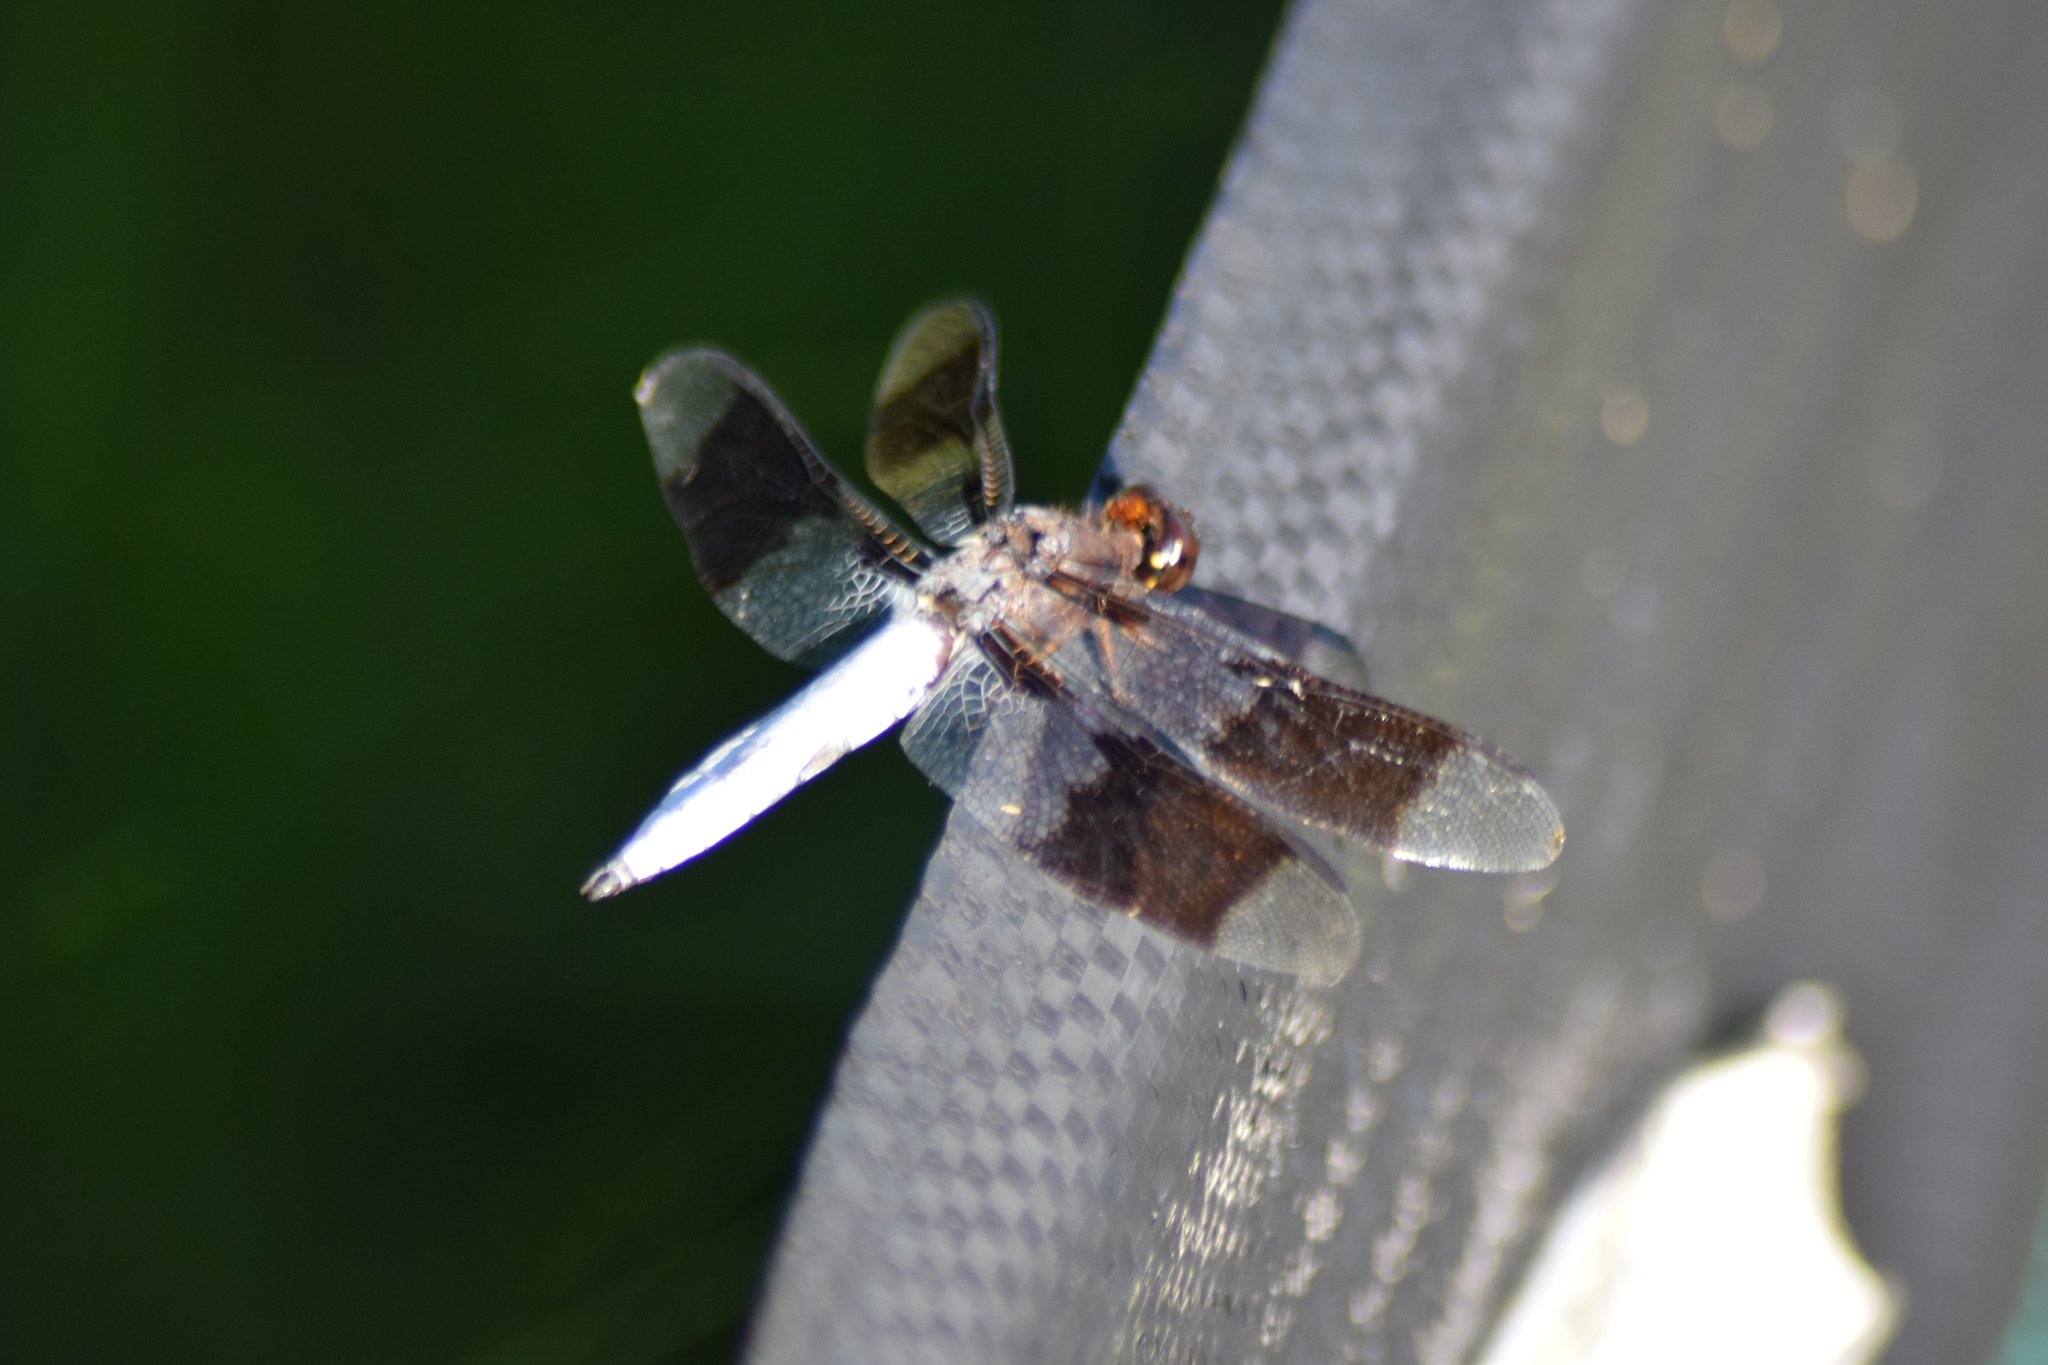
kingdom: Animalia
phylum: Arthropoda
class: Insecta
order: Odonata
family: Libellulidae
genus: Plathemis
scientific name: Plathemis lydia
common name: Common whitetail
